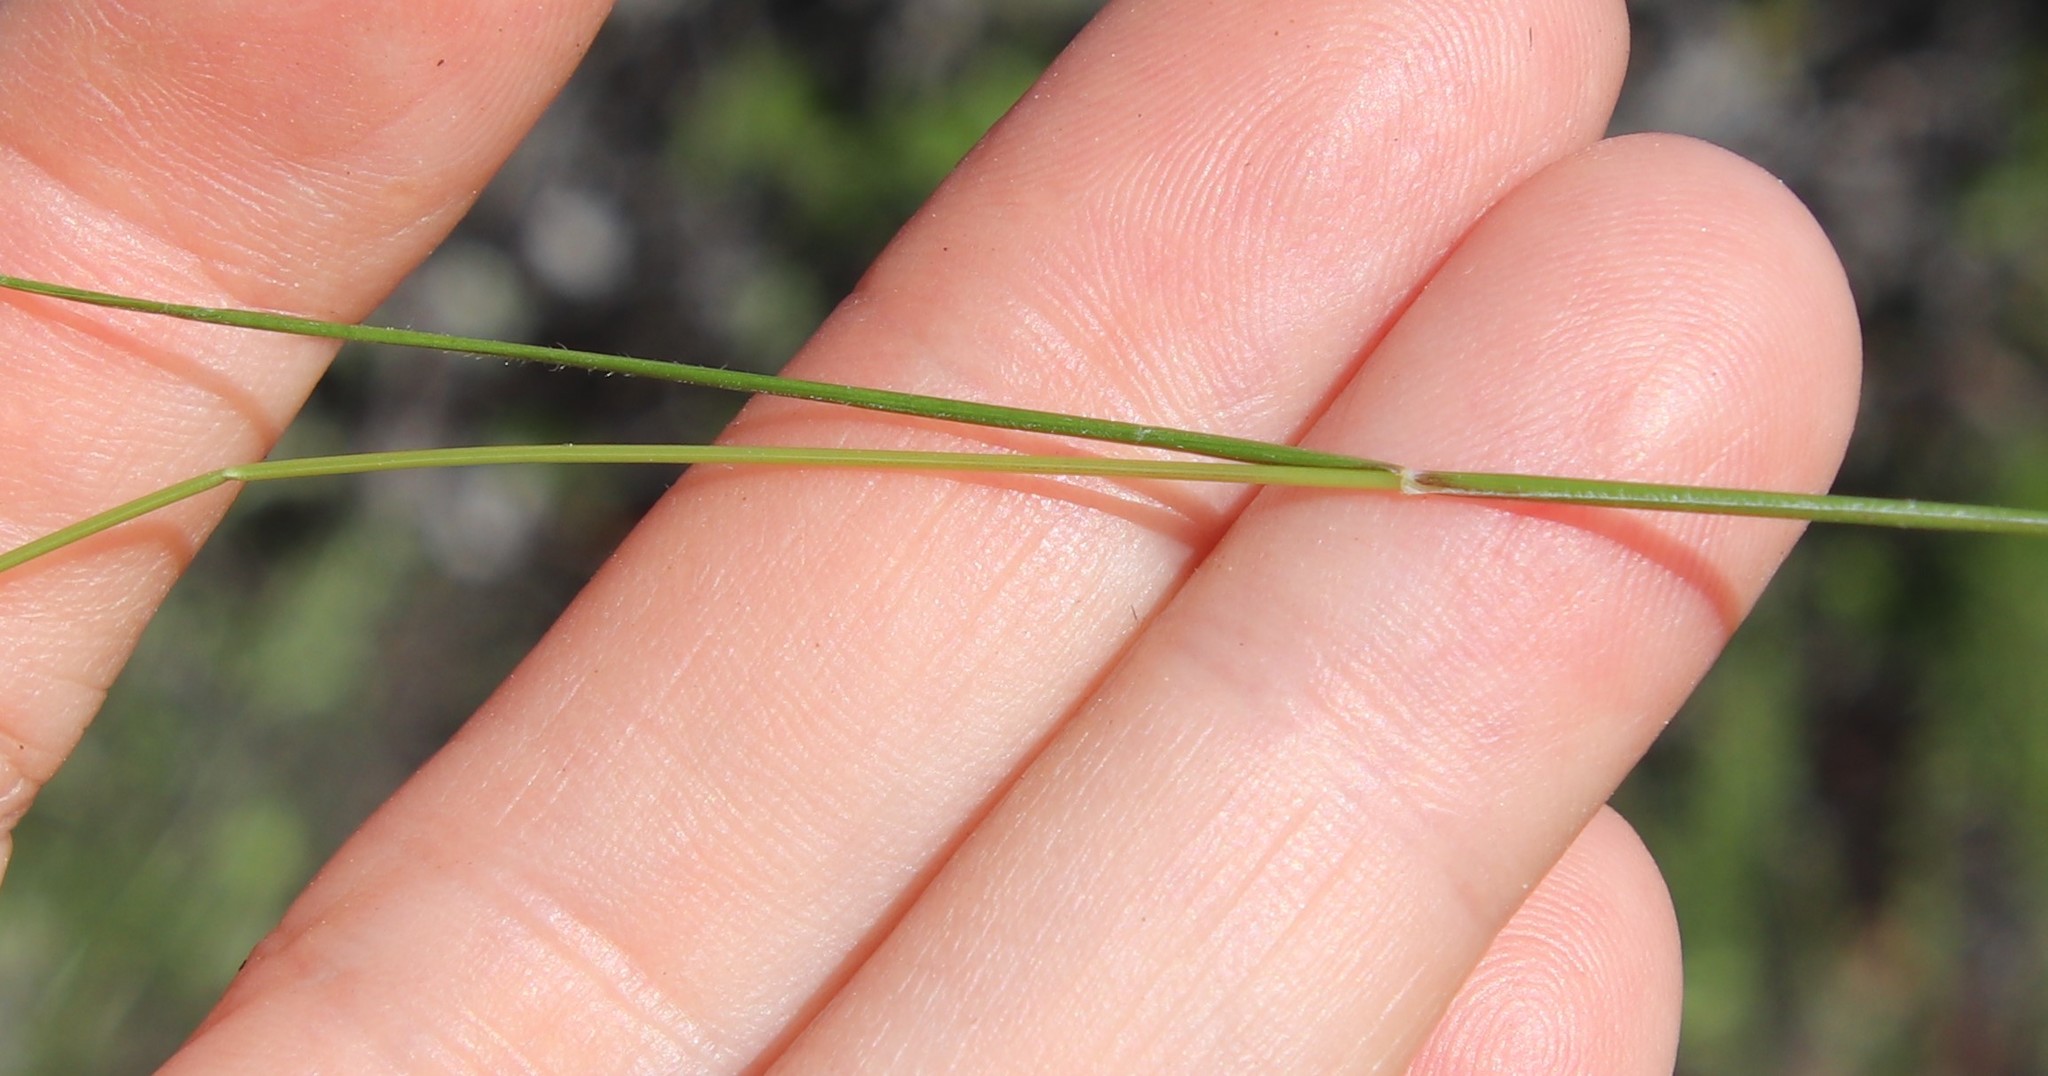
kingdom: Plantae
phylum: Tracheophyta
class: Liliopsida
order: Poales
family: Poaceae
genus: Festuca
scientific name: Festuca microstachys
